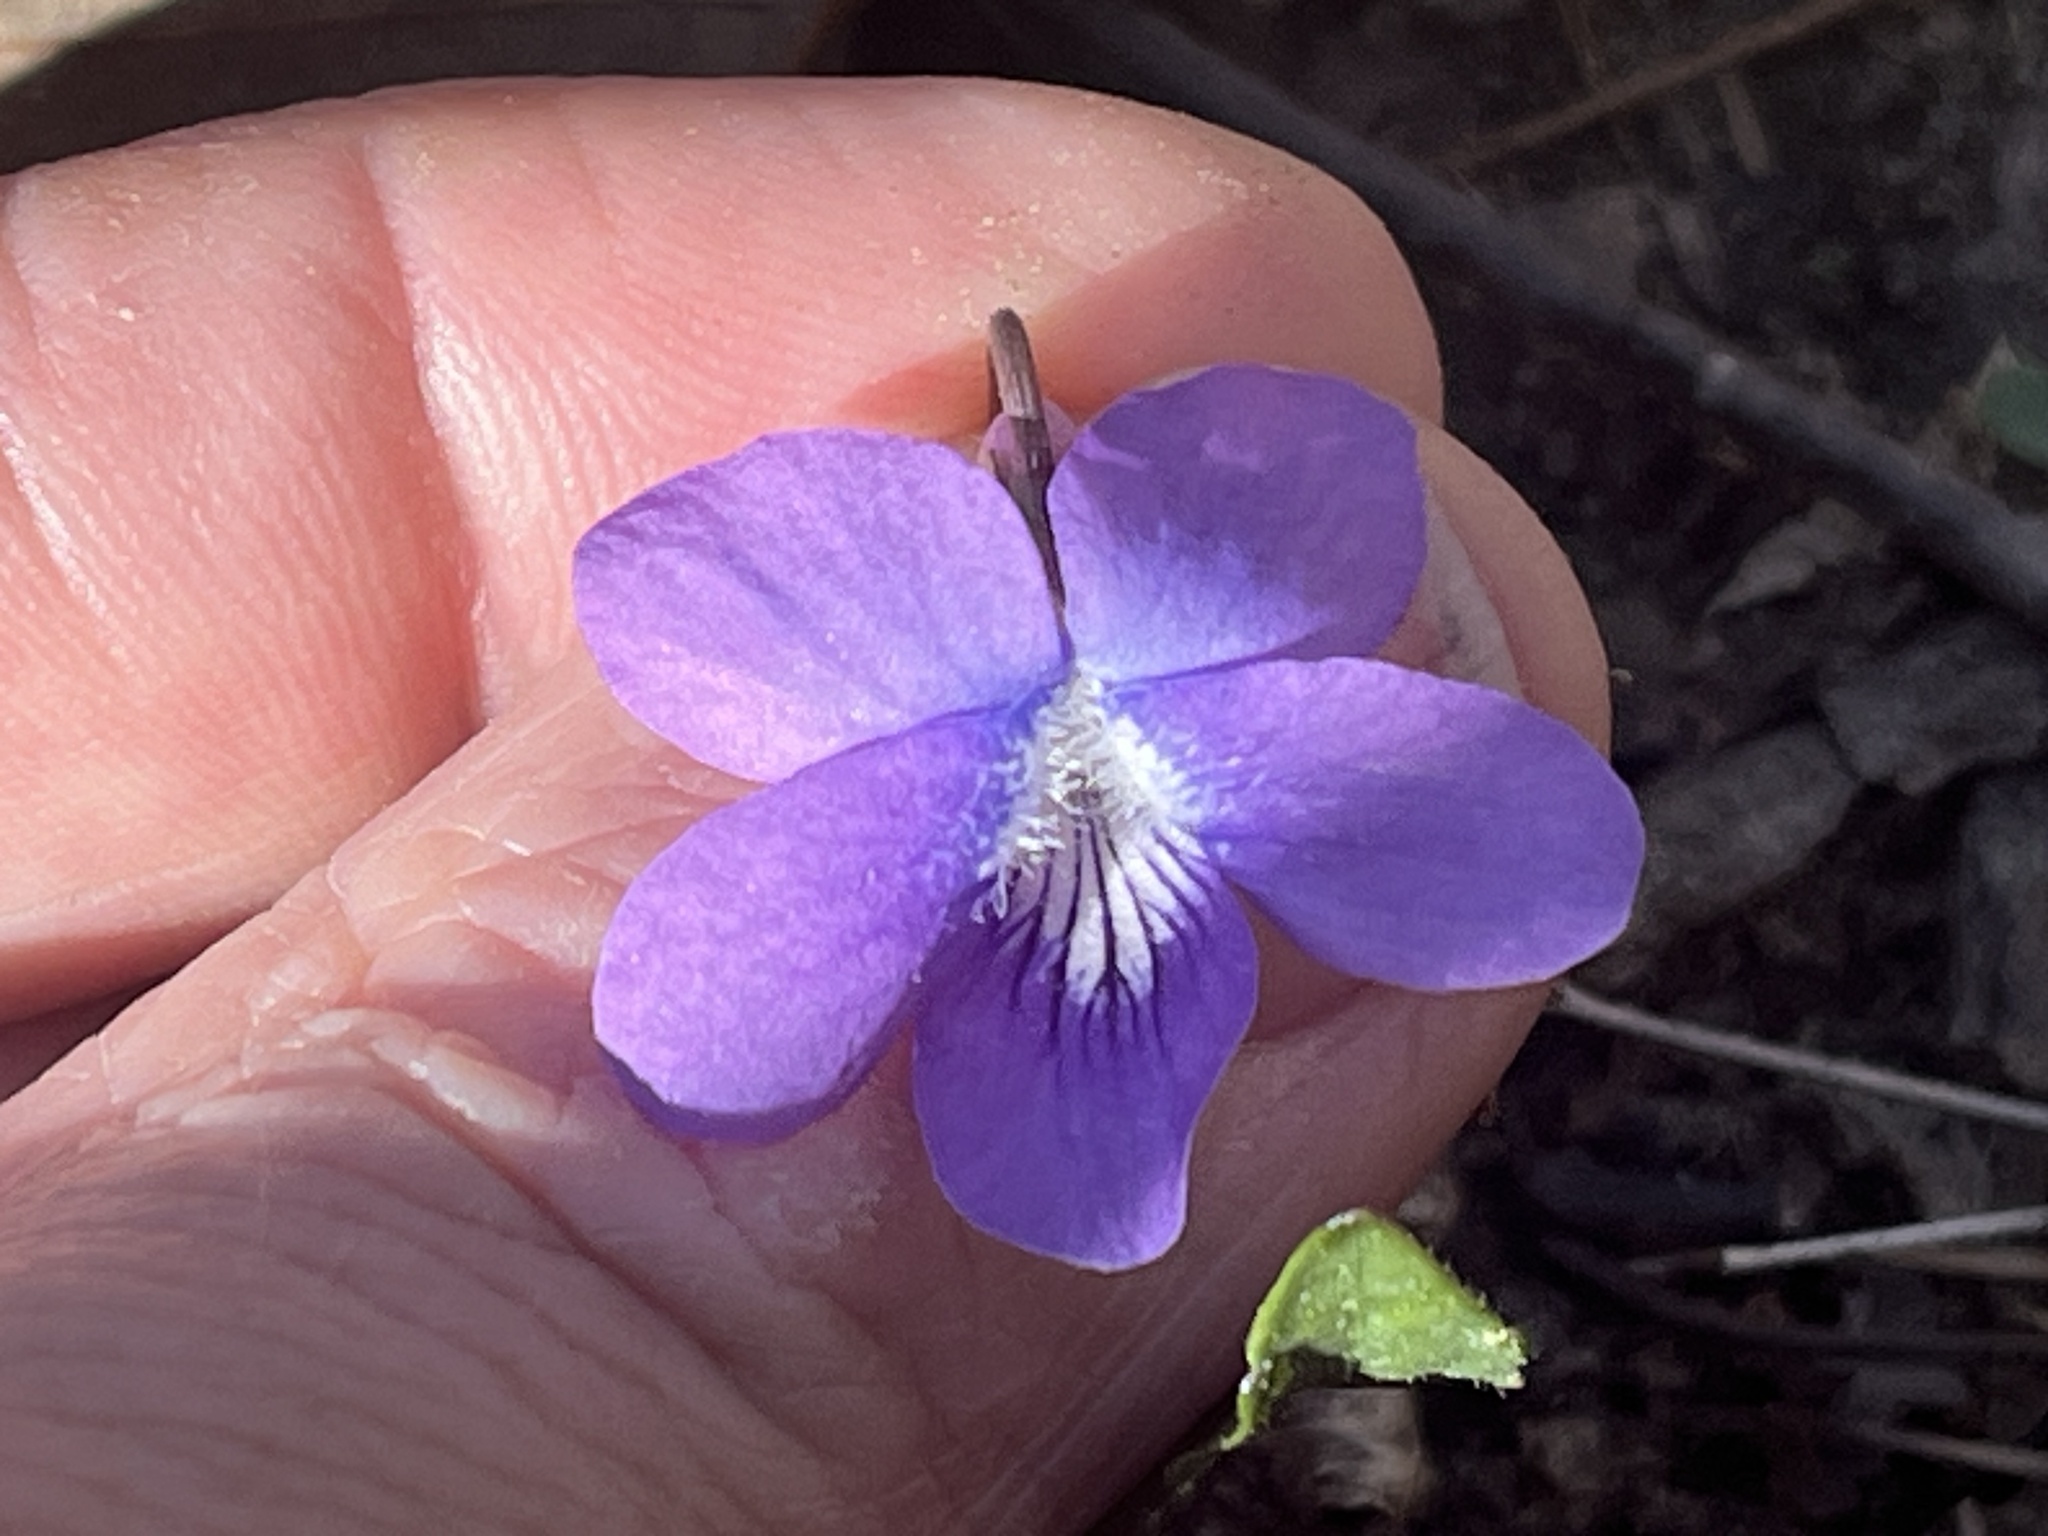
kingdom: Plantae
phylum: Tracheophyta
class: Magnoliopsida
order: Malpighiales
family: Violaceae
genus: Viola
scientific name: Viola palmata
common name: Early blue violet
